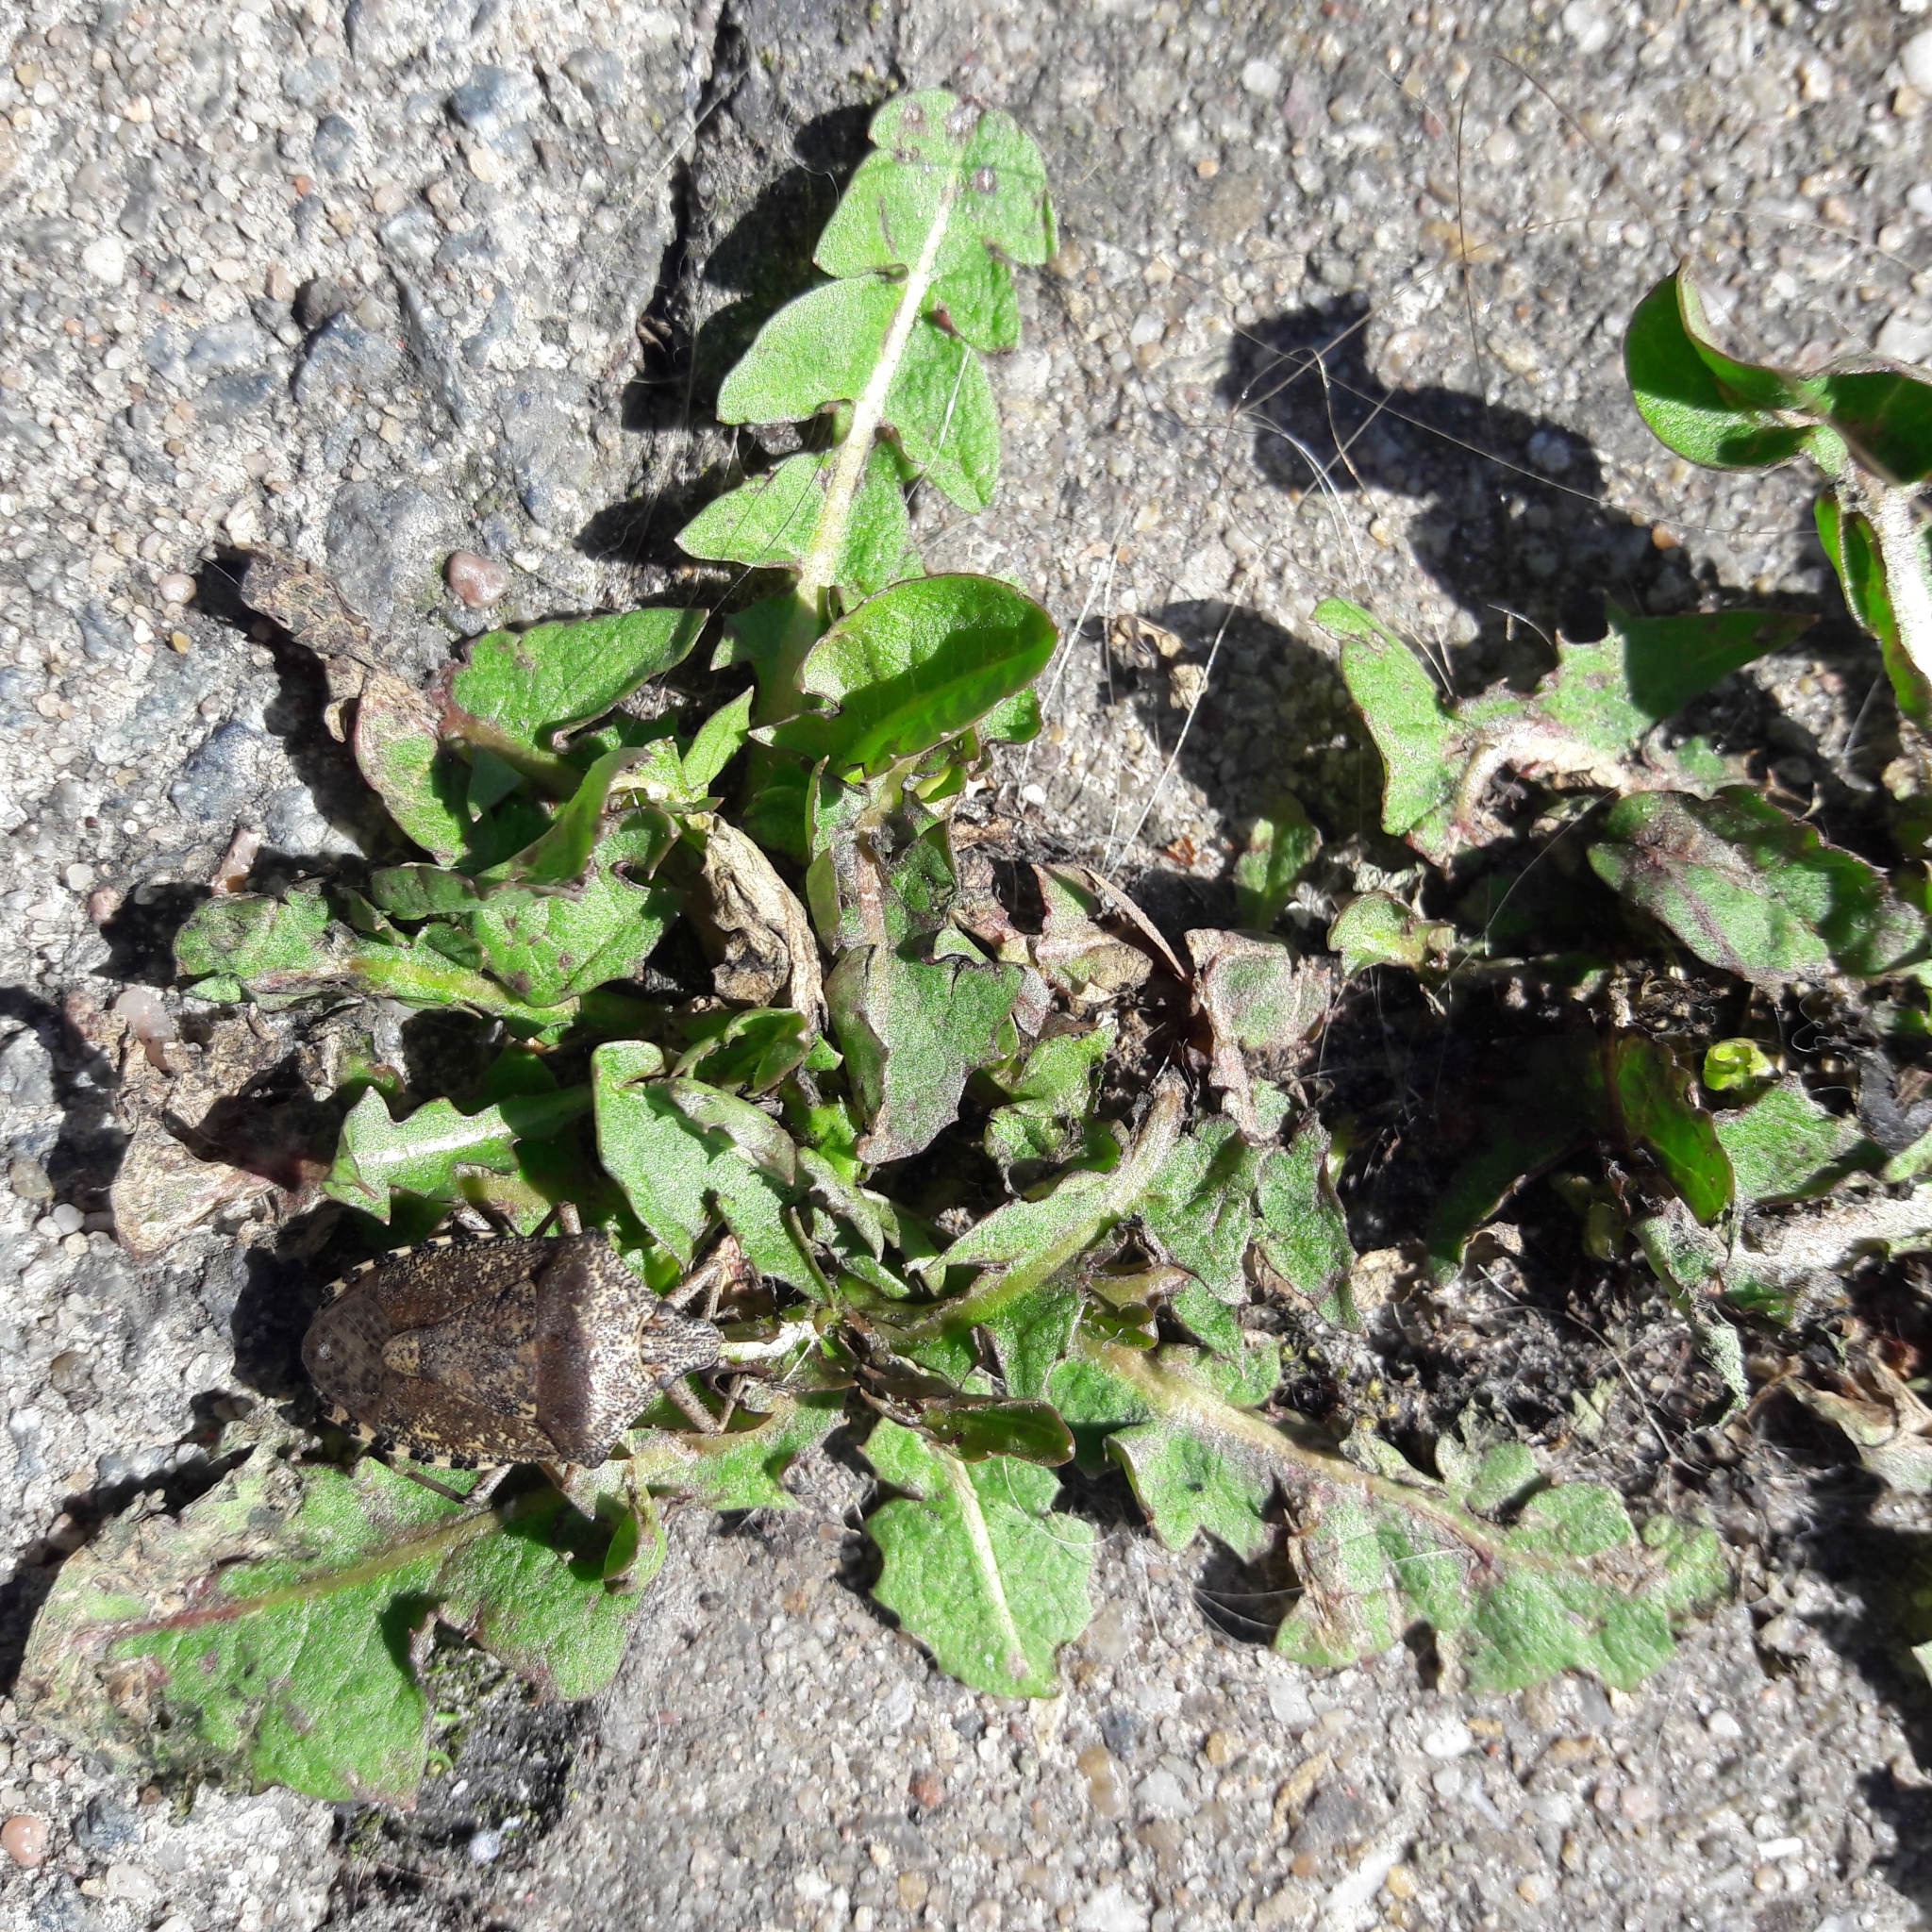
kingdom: Plantae
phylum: Tracheophyta
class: Magnoliopsida
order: Asterales
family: Asteraceae
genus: Taraxacum
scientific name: Taraxacum officinale
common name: Common dandelion
